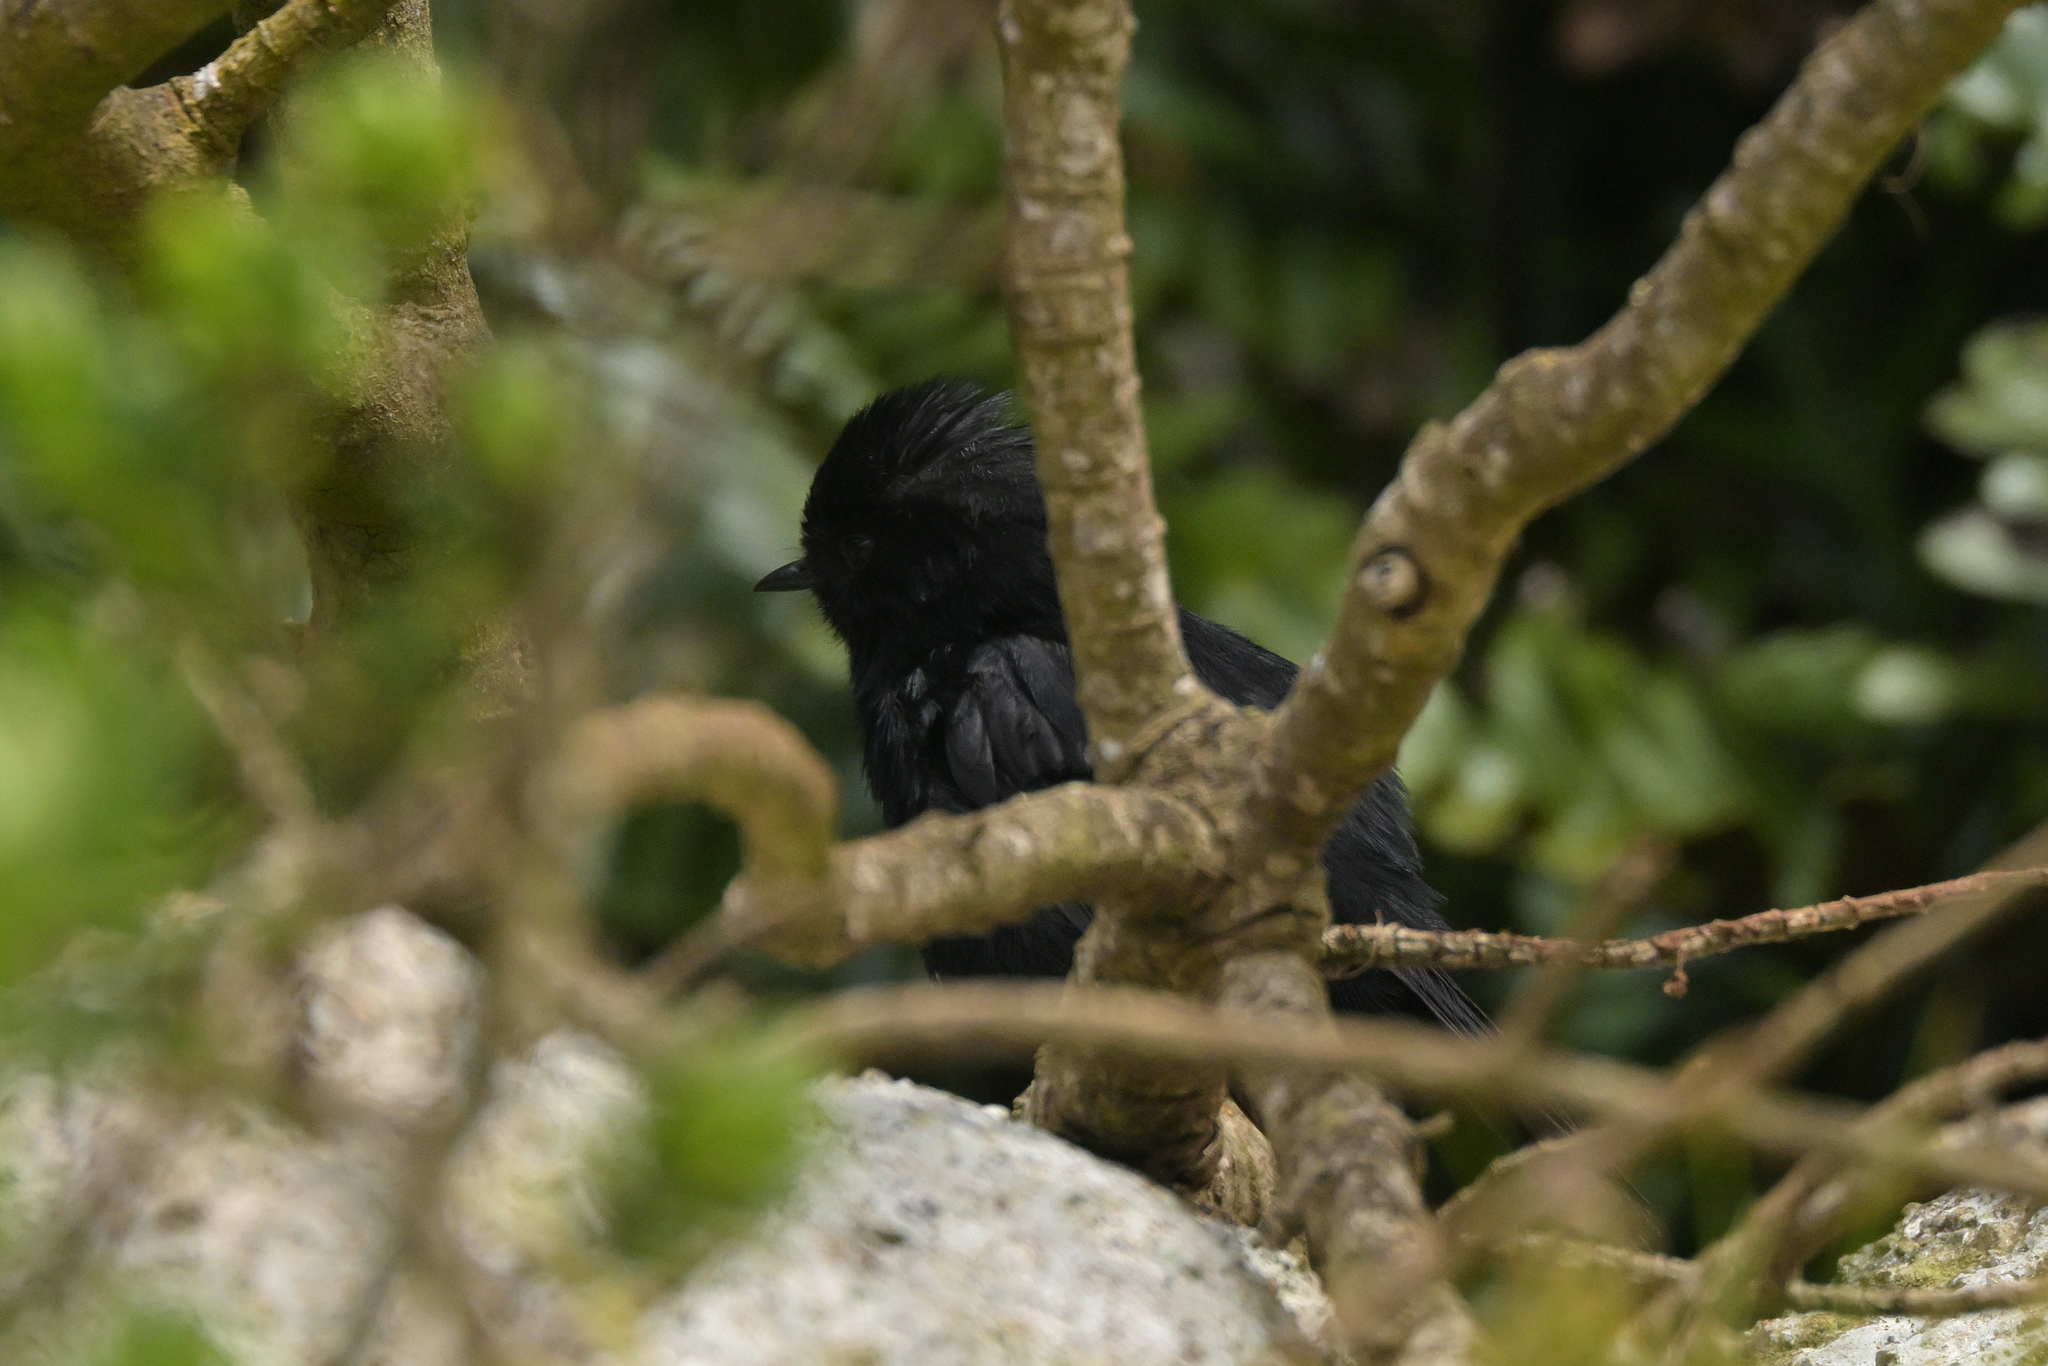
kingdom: Animalia
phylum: Chordata
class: Aves
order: Passeriformes
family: Petroicidae
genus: Petroica
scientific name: Petroica macrocephala
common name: Tomtit
